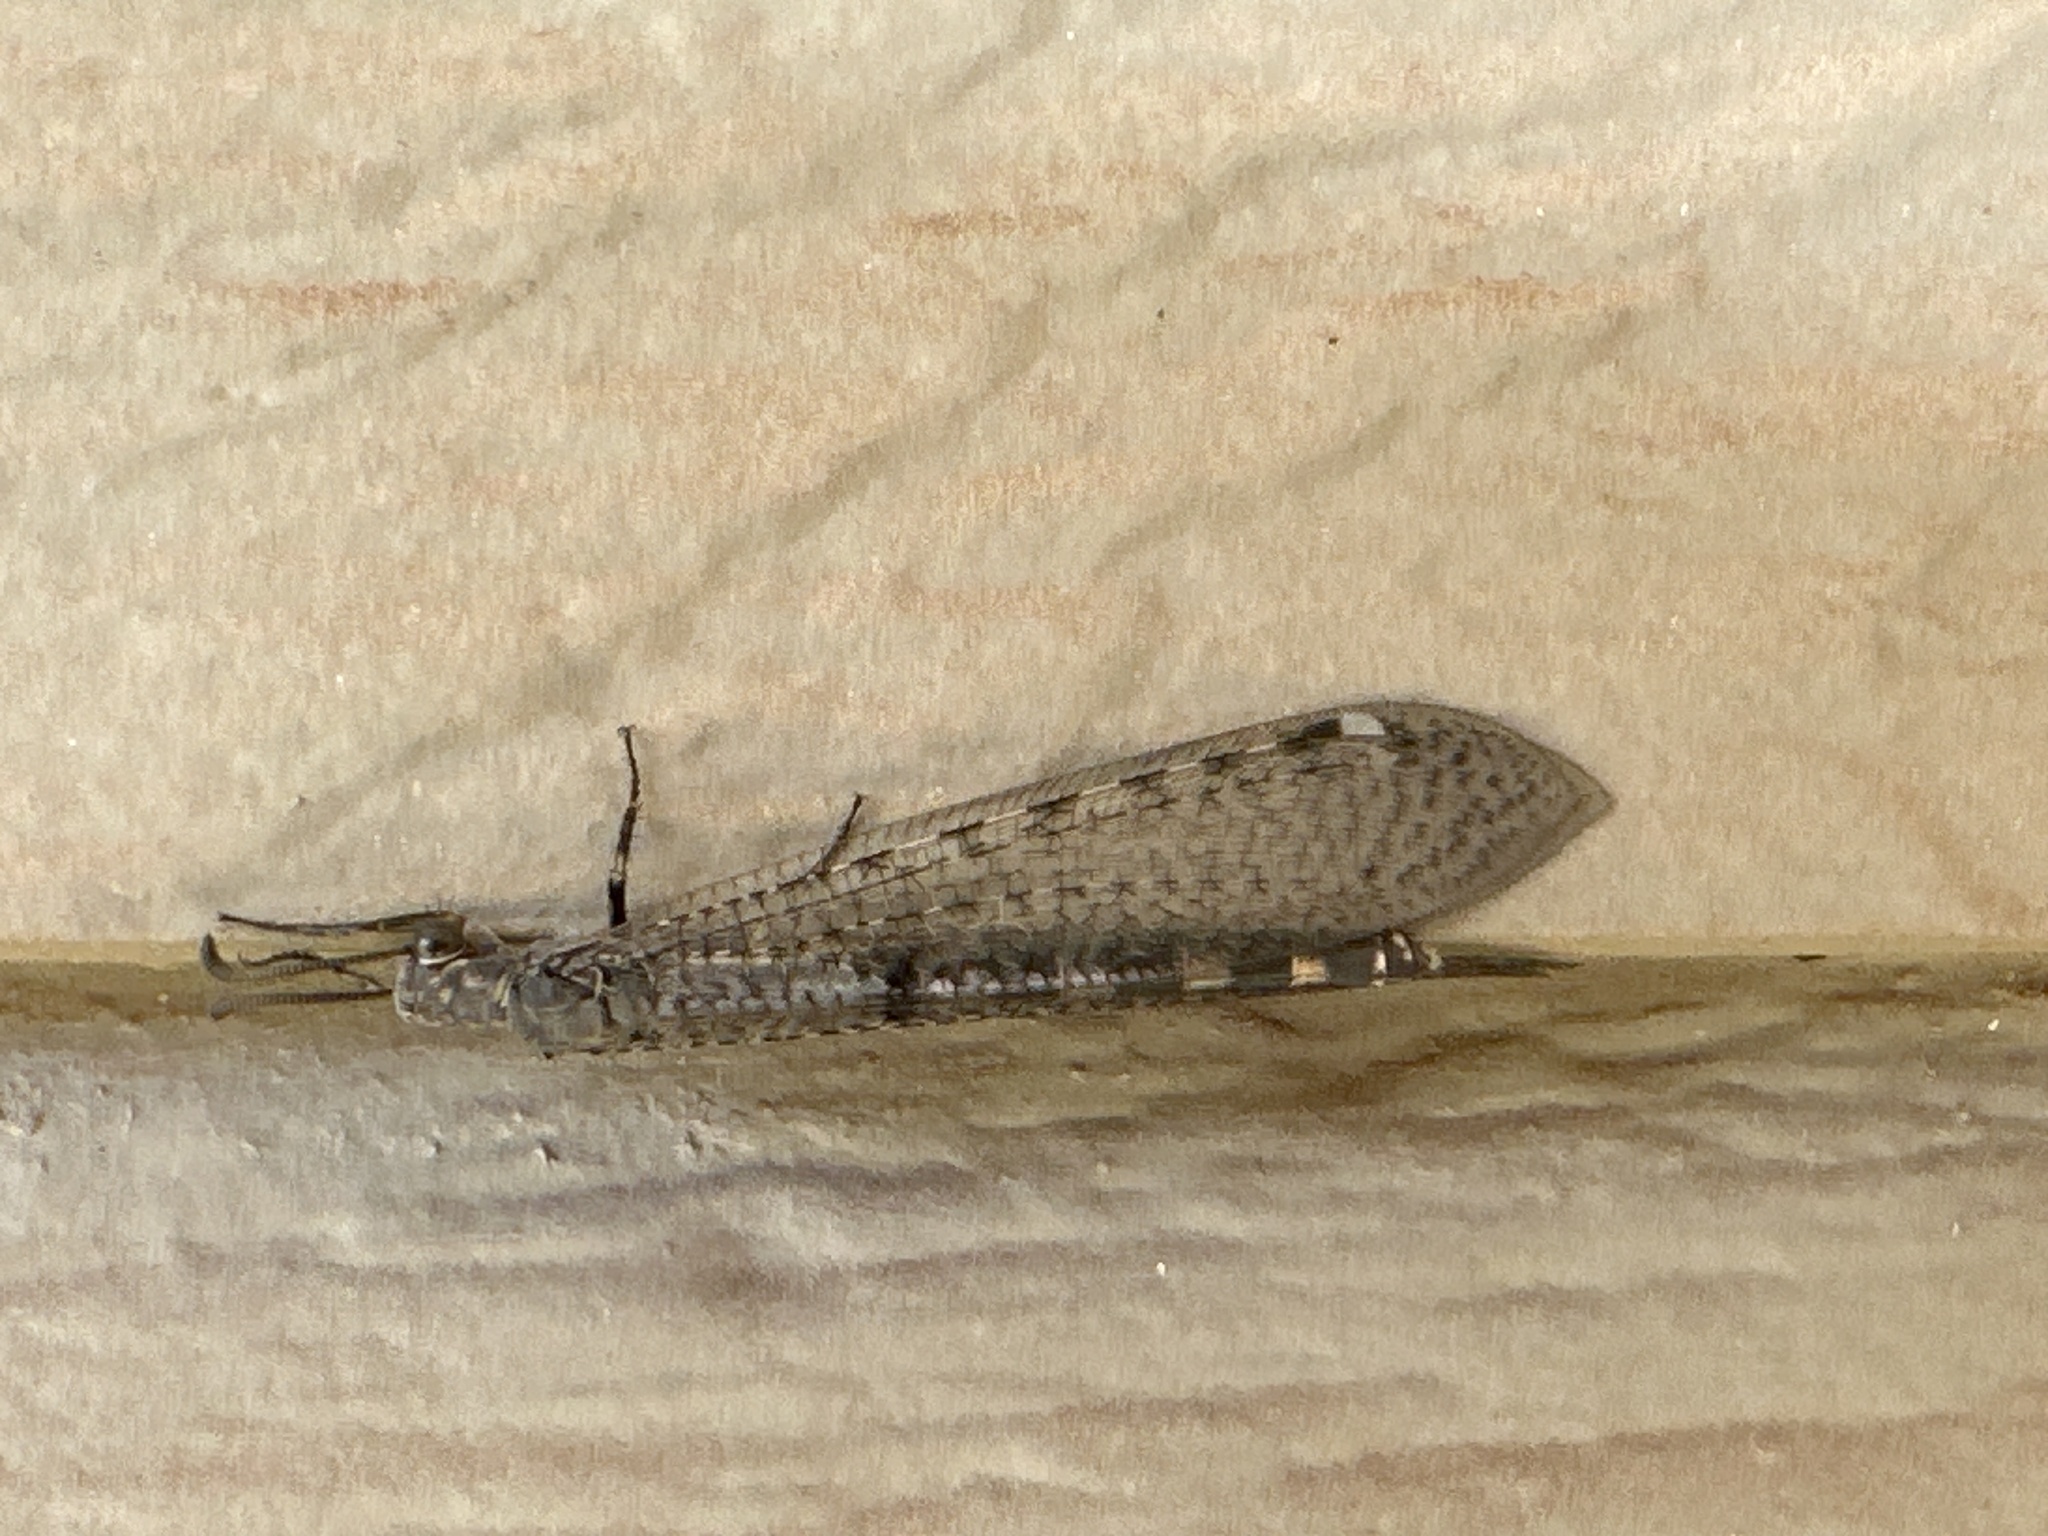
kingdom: Animalia
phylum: Arthropoda
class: Insecta
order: Neuroptera
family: Myrmeleontidae
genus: Myrmeleon
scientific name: Myrmeleon immaculatus
